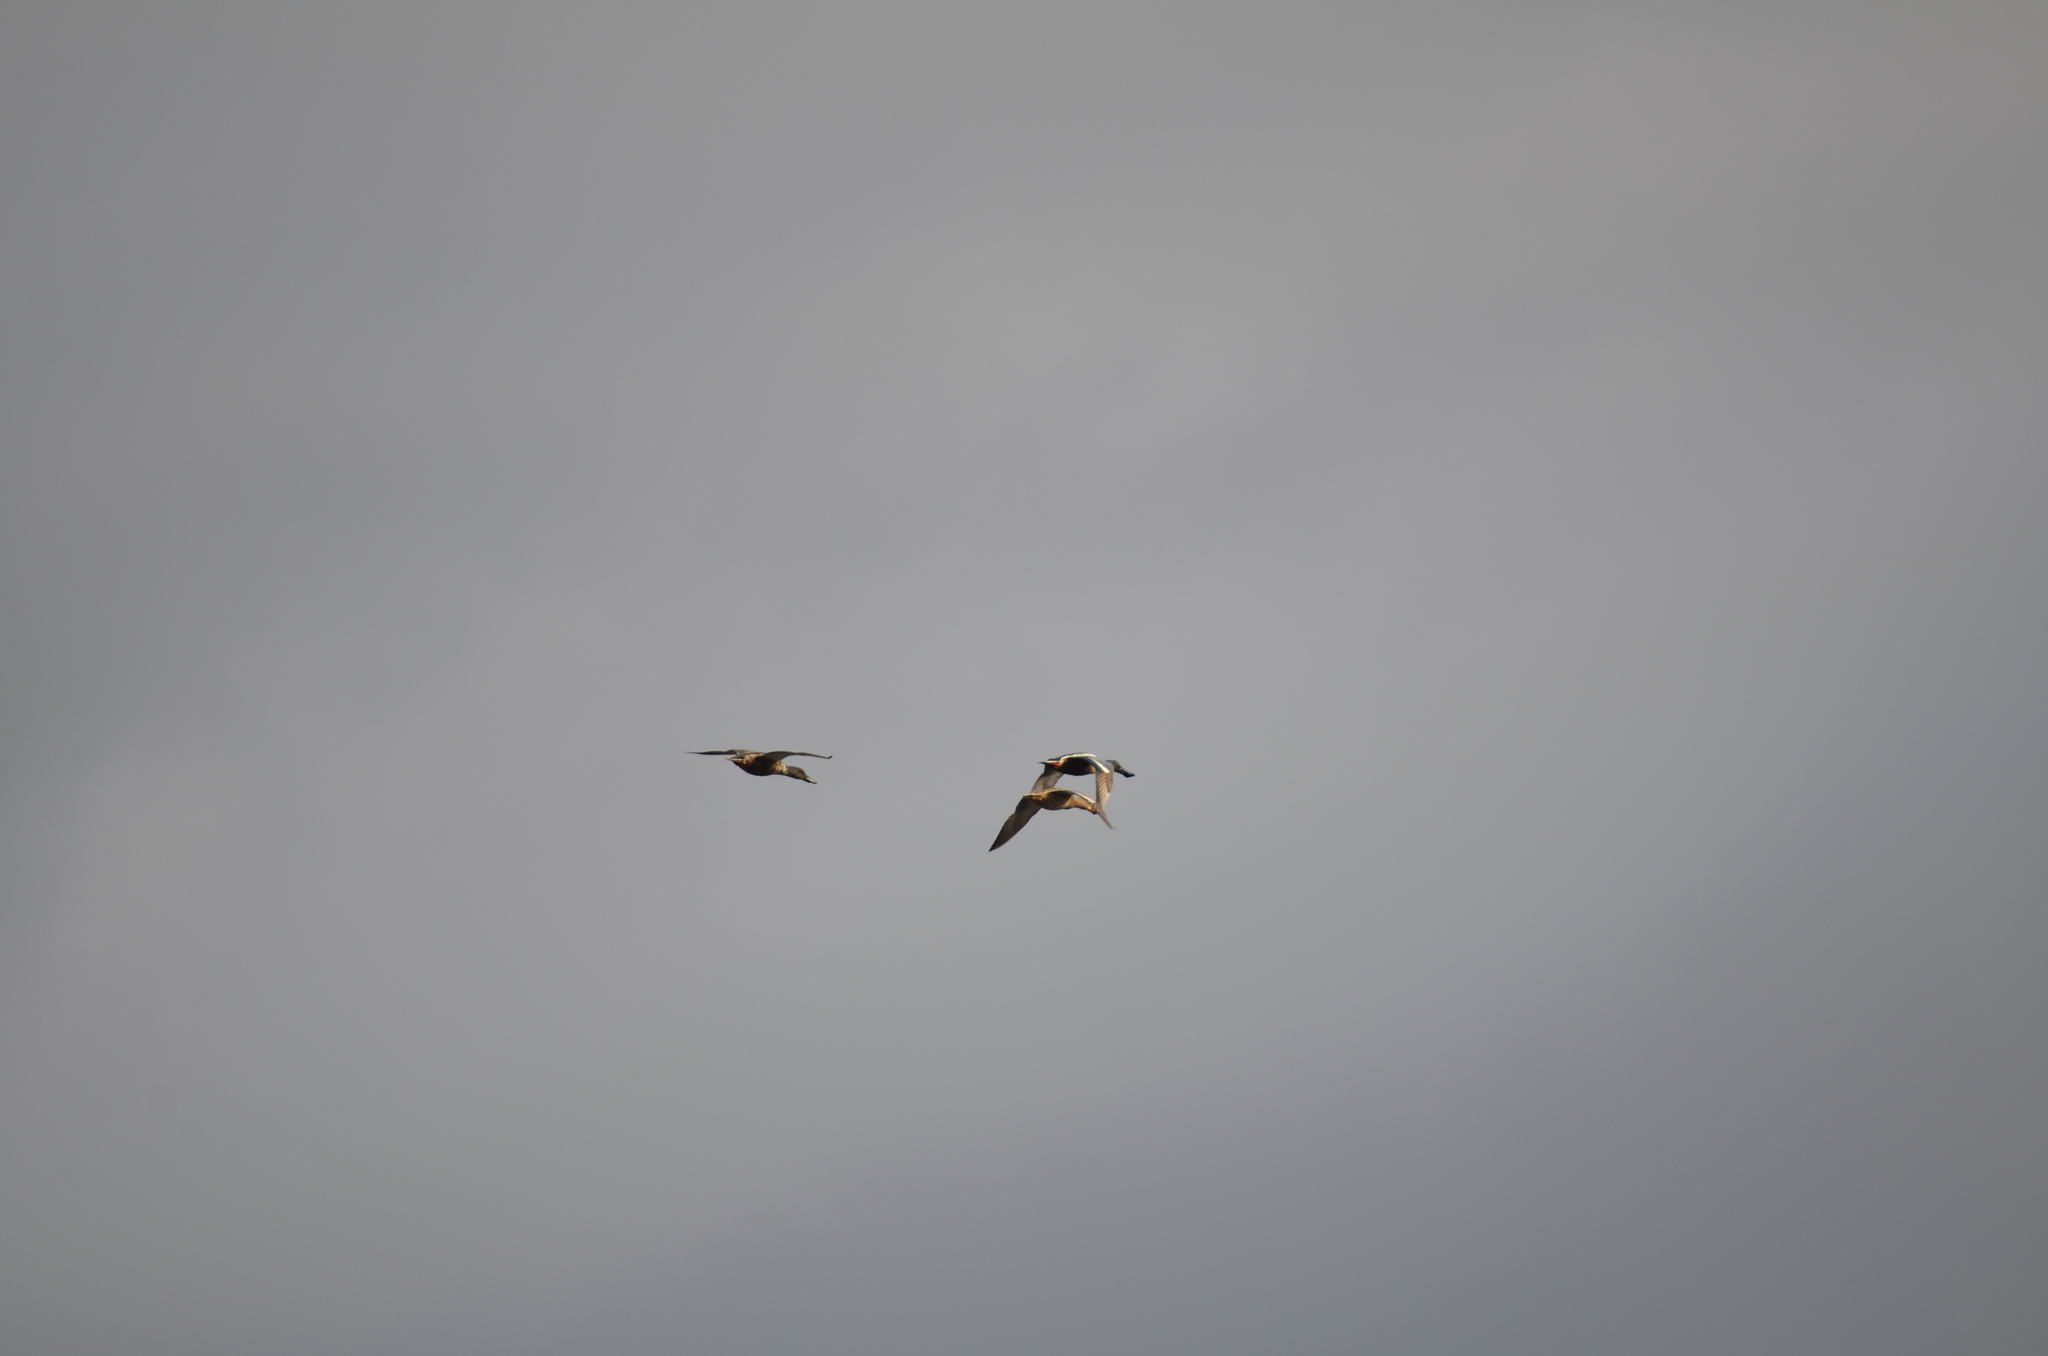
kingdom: Animalia
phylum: Chordata
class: Aves
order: Anseriformes
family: Anatidae
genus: Spatula
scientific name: Spatula clypeata
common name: Northern shoveler
